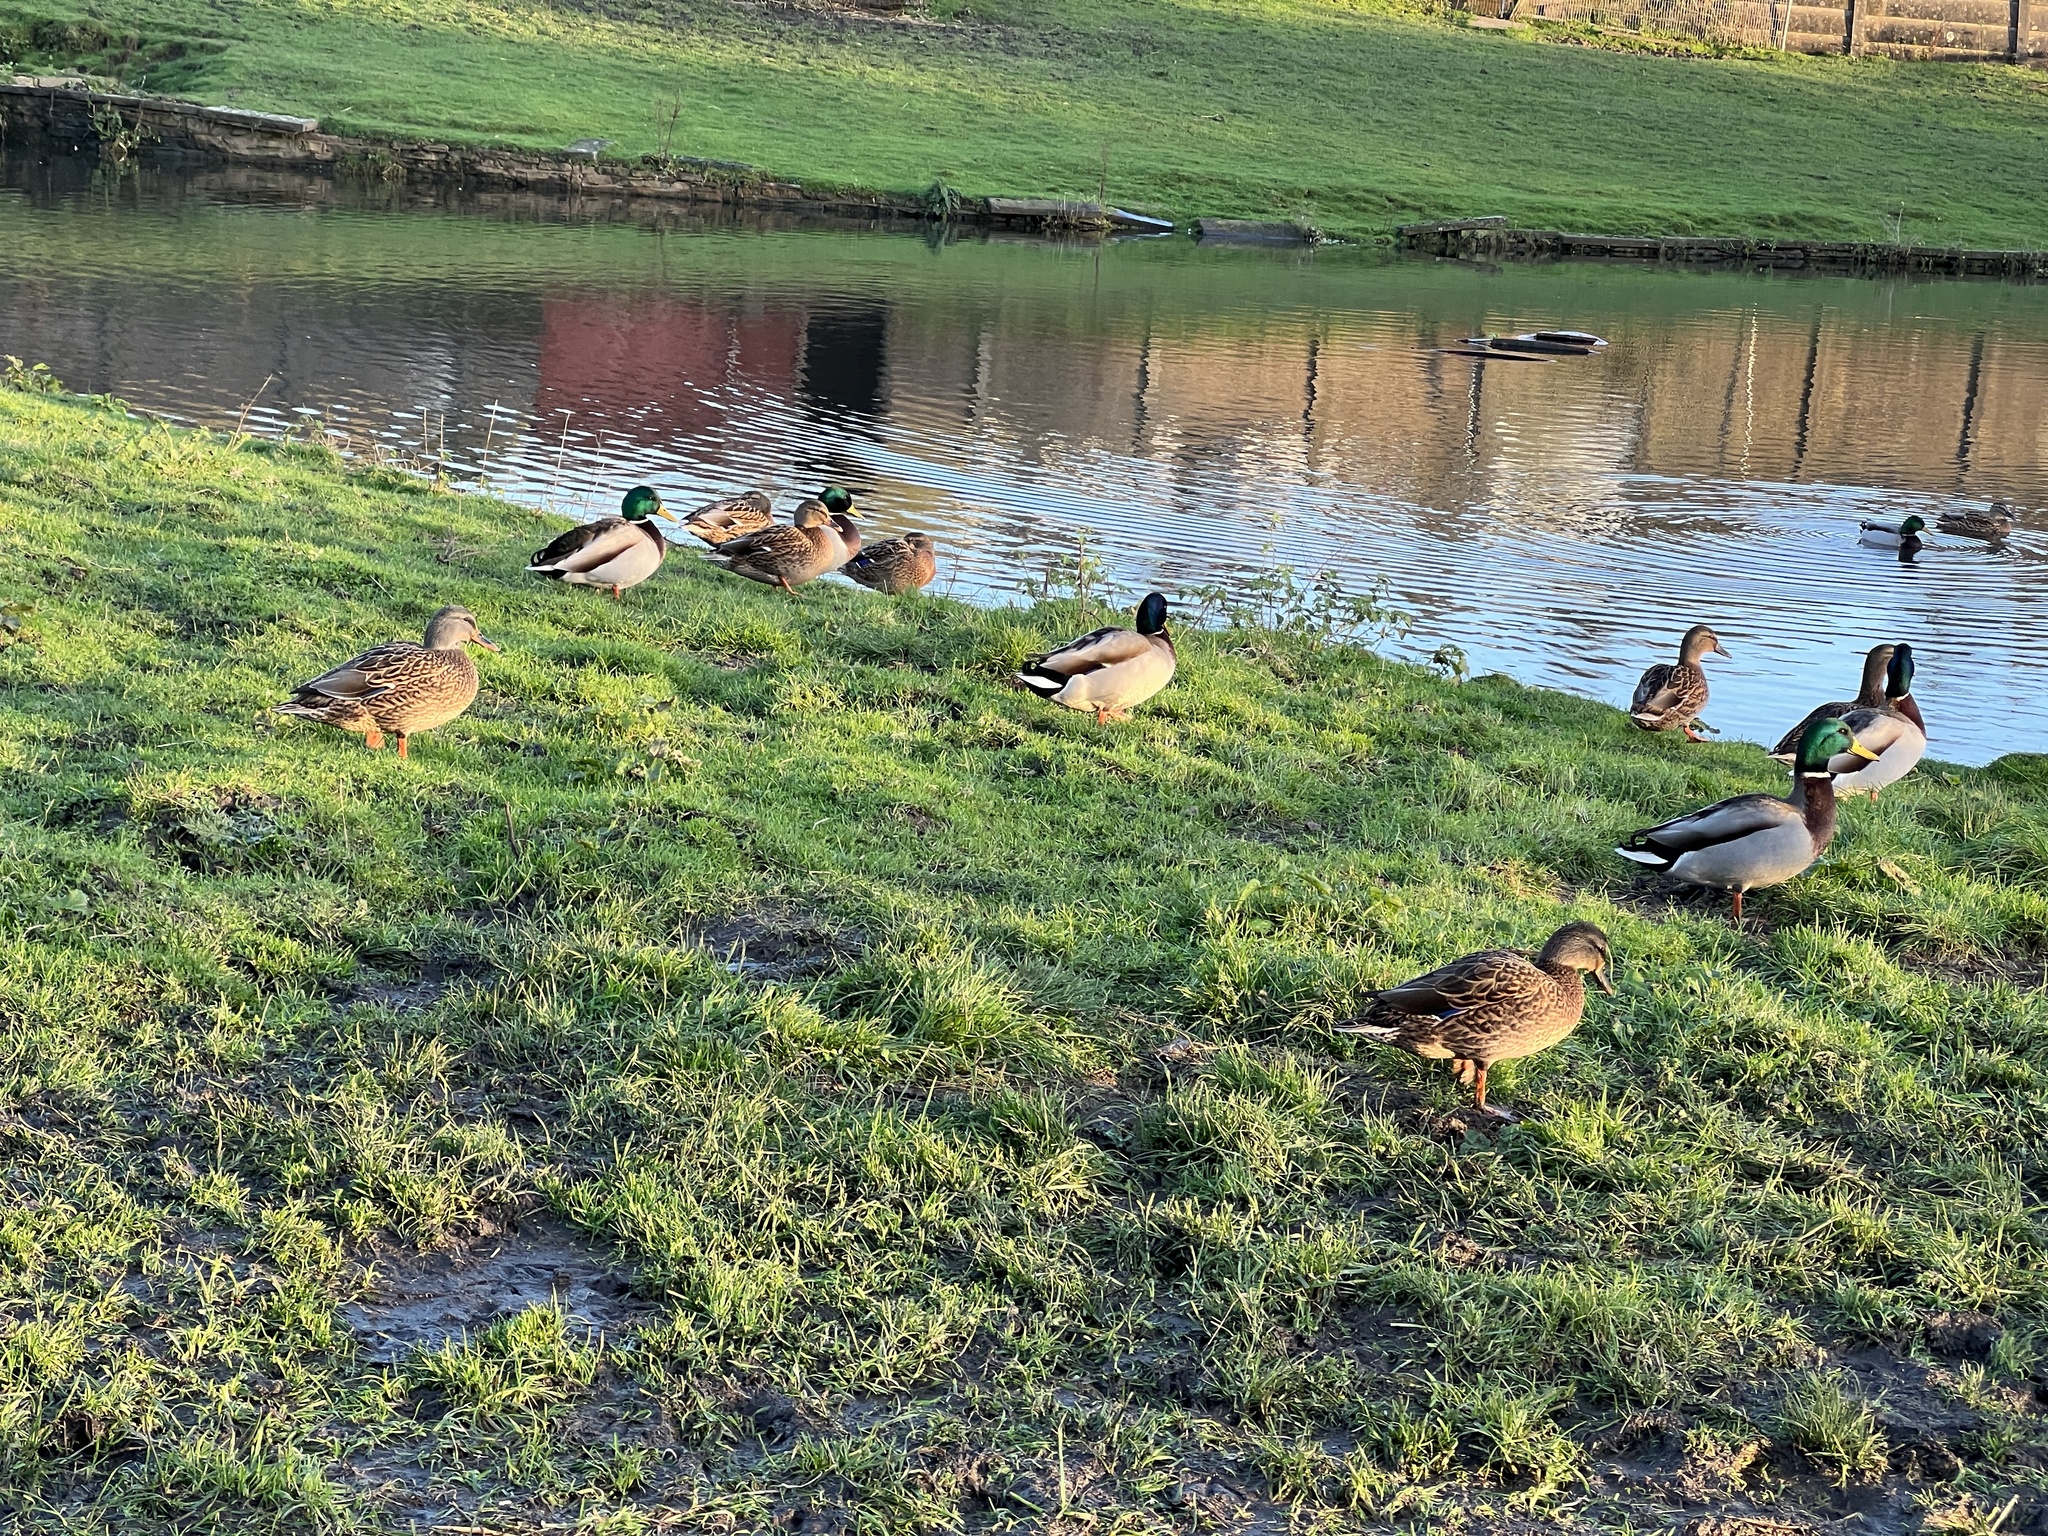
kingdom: Animalia
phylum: Chordata
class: Aves
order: Anseriformes
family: Anatidae
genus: Anas
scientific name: Anas platyrhynchos
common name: Mallard
